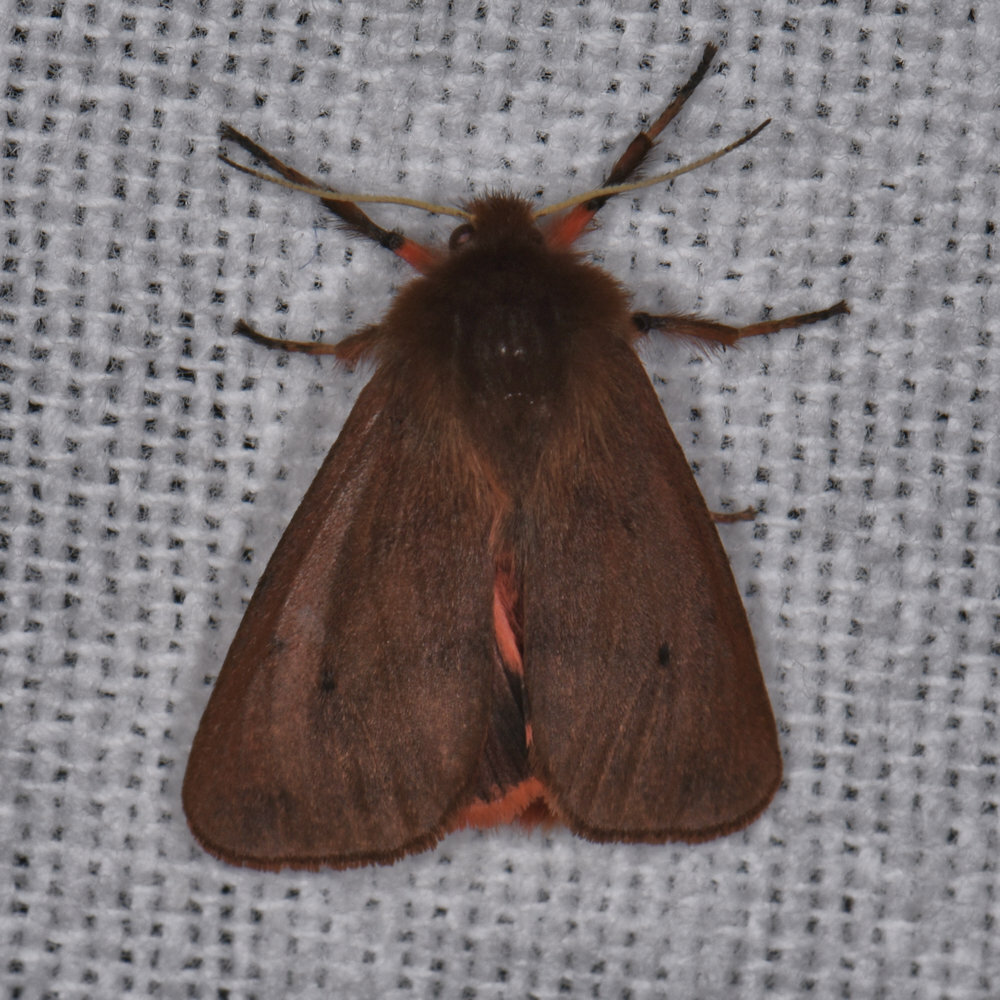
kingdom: Animalia
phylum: Arthropoda
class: Insecta
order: Lepidoptera
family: Erebidae
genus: Phragmatobia
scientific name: Phragmatobia fuliginosa
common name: Ruby tiger
